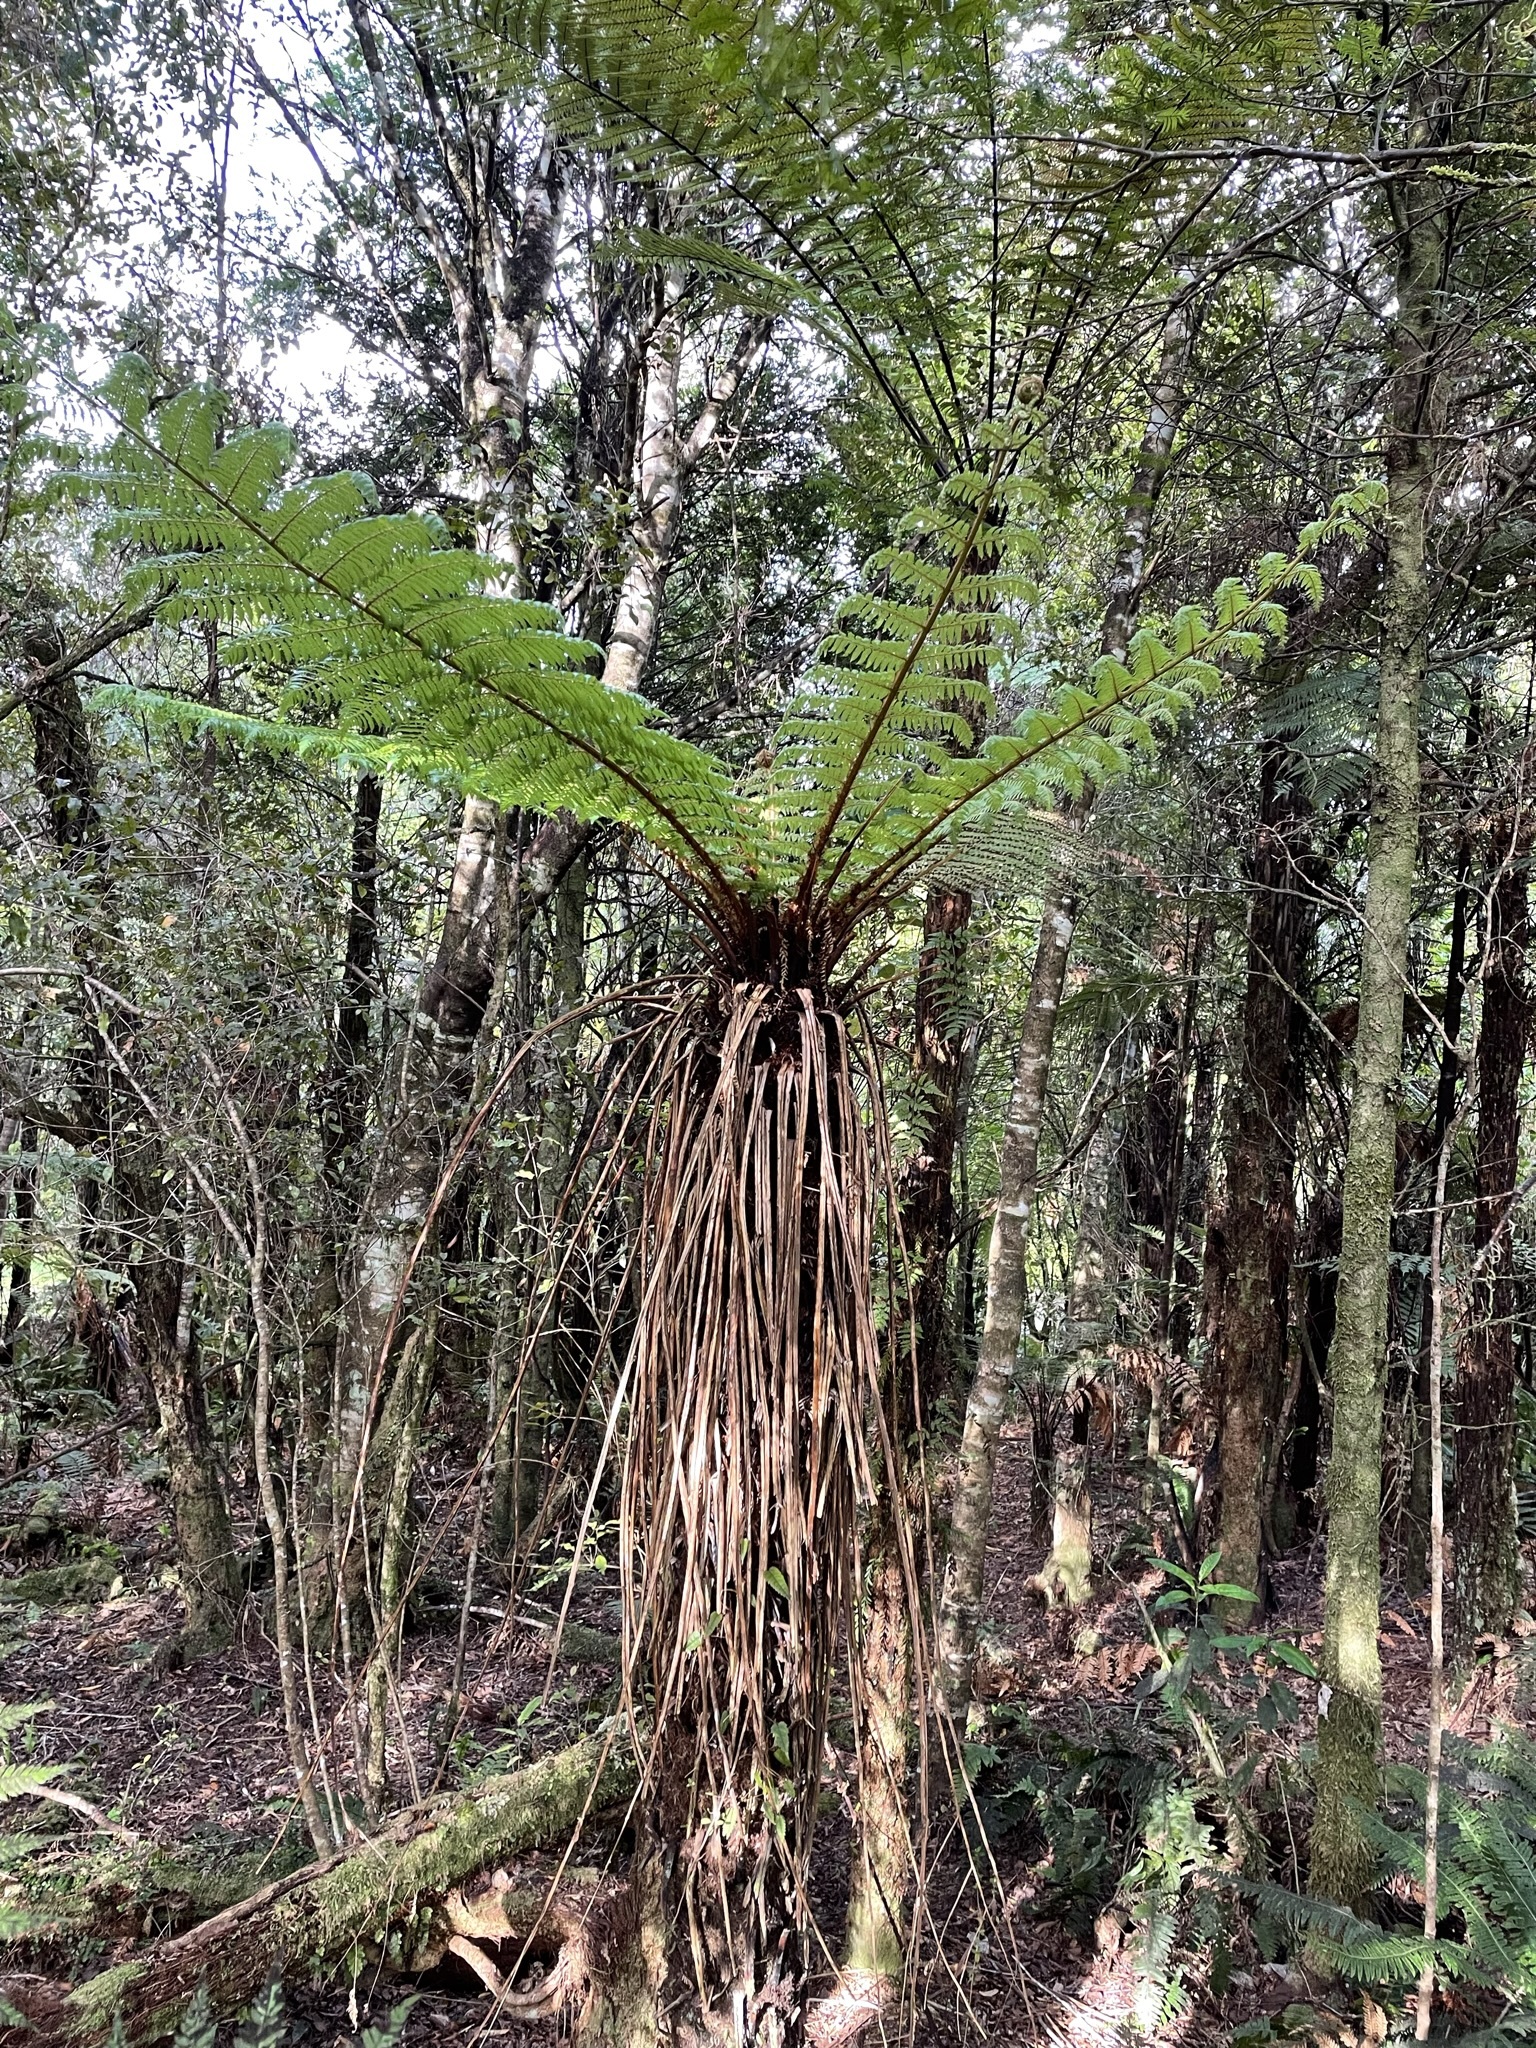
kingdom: Plantae
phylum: Tracheophyta
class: Polypodiopsida
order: Cyatheales
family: Cyatheaceae
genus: Alsophila
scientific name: Alsophila smithii
